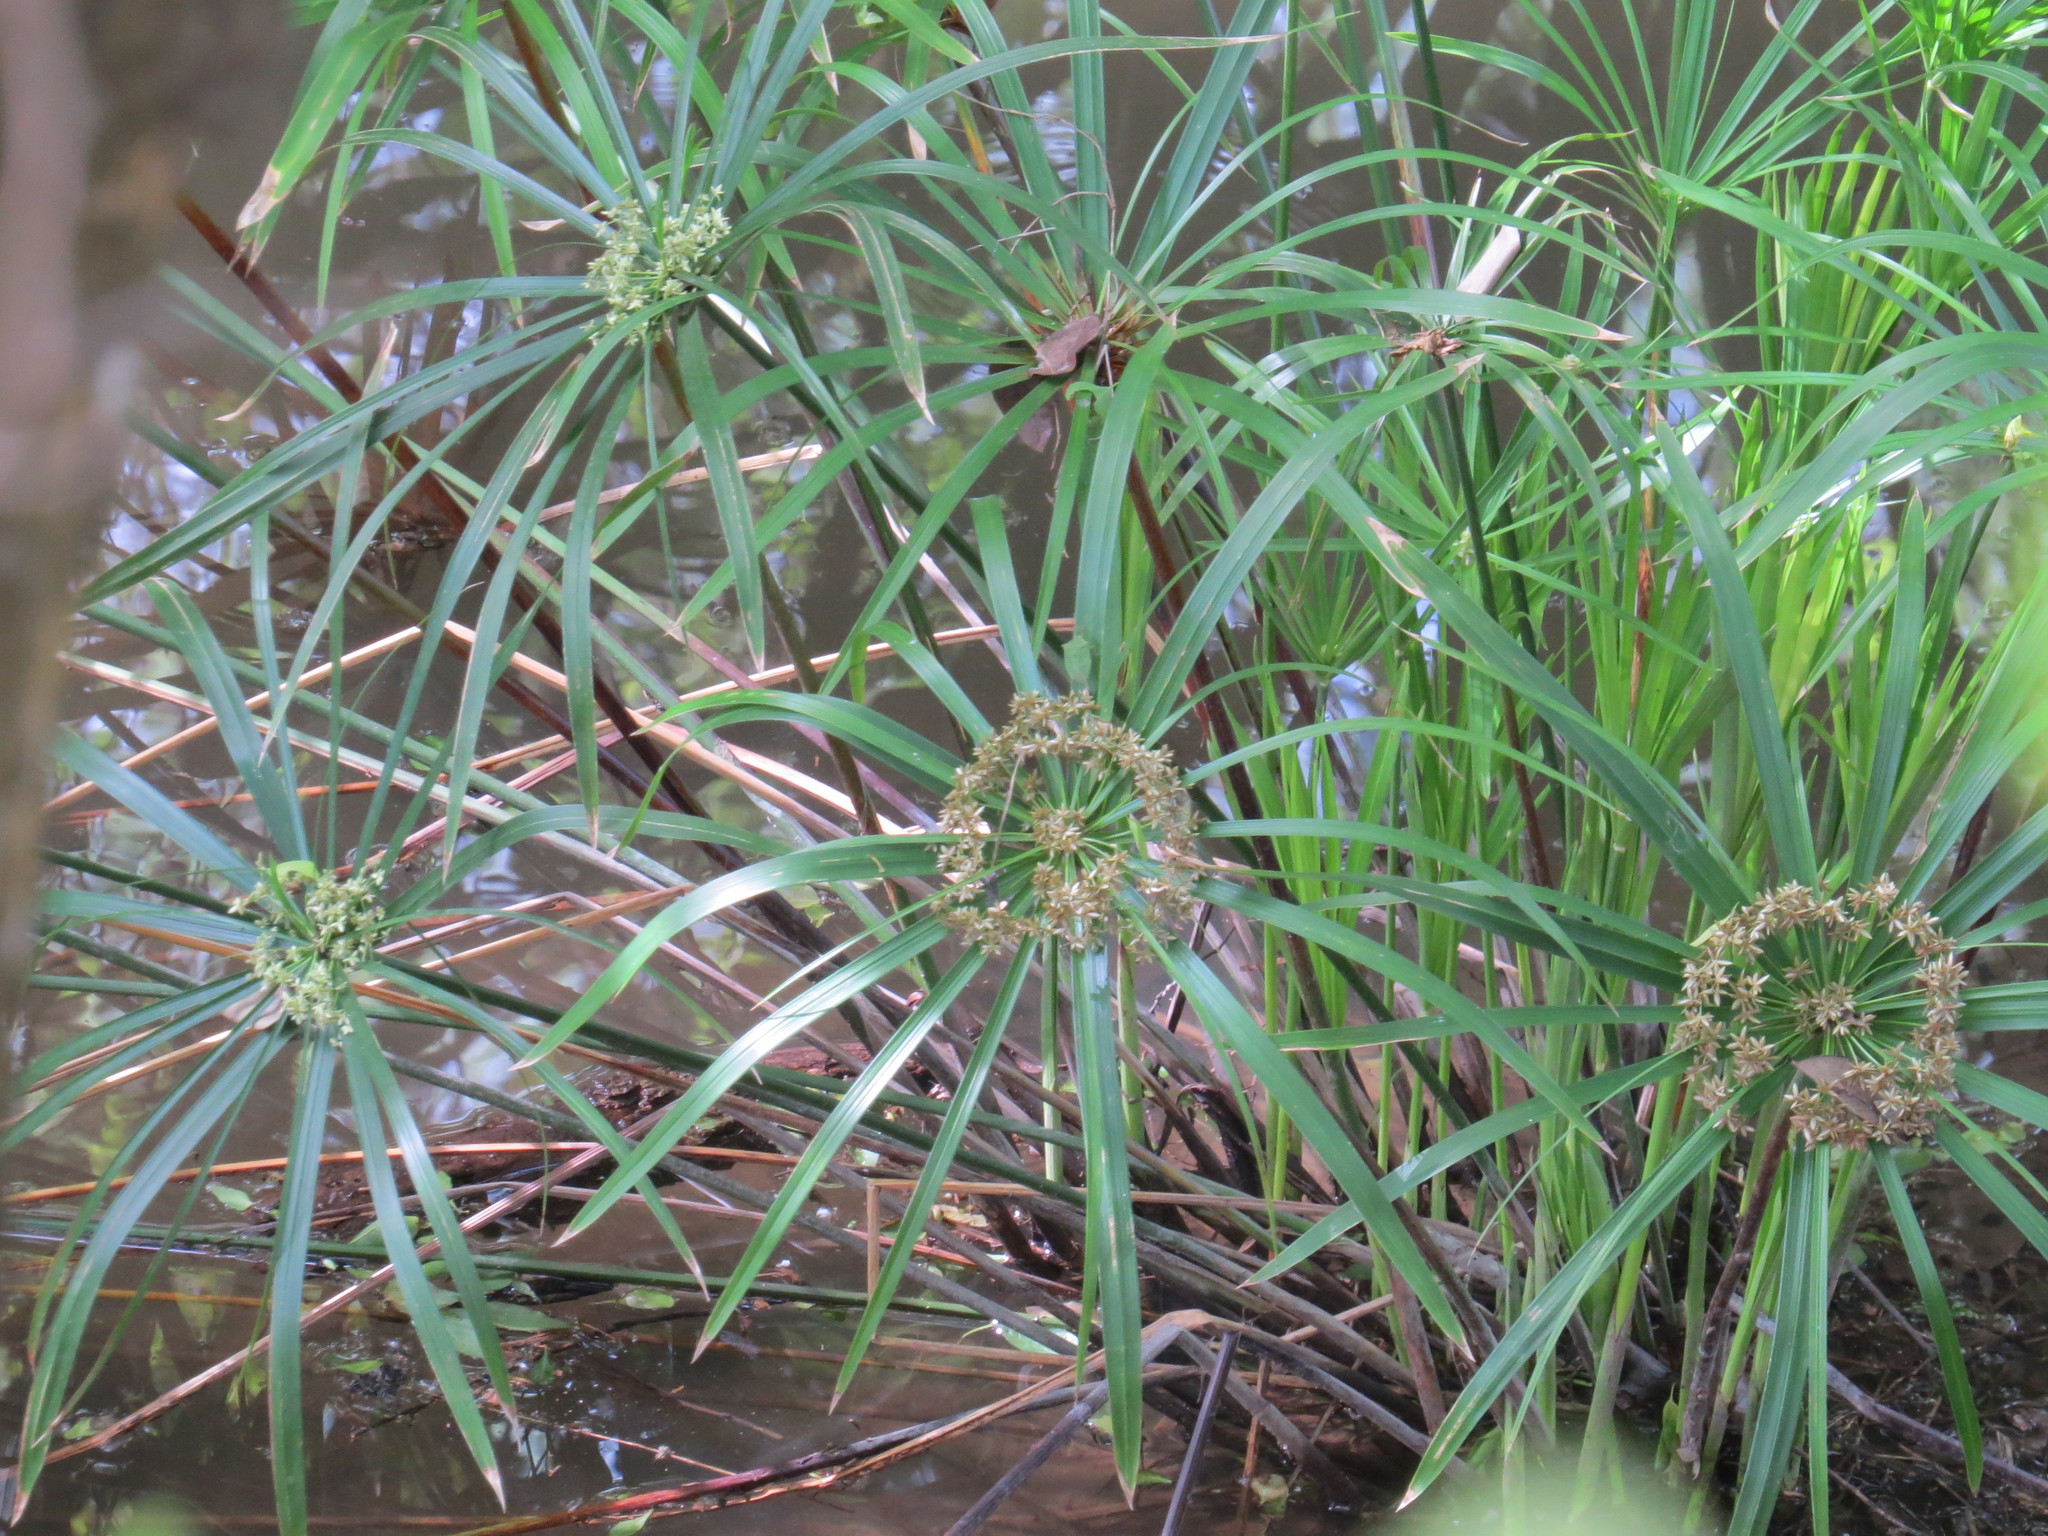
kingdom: Plantae
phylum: Tracheophyta
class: Liliopsida
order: Poales
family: Cyperaceae
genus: Cyperus
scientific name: Cyperus alternifolius
